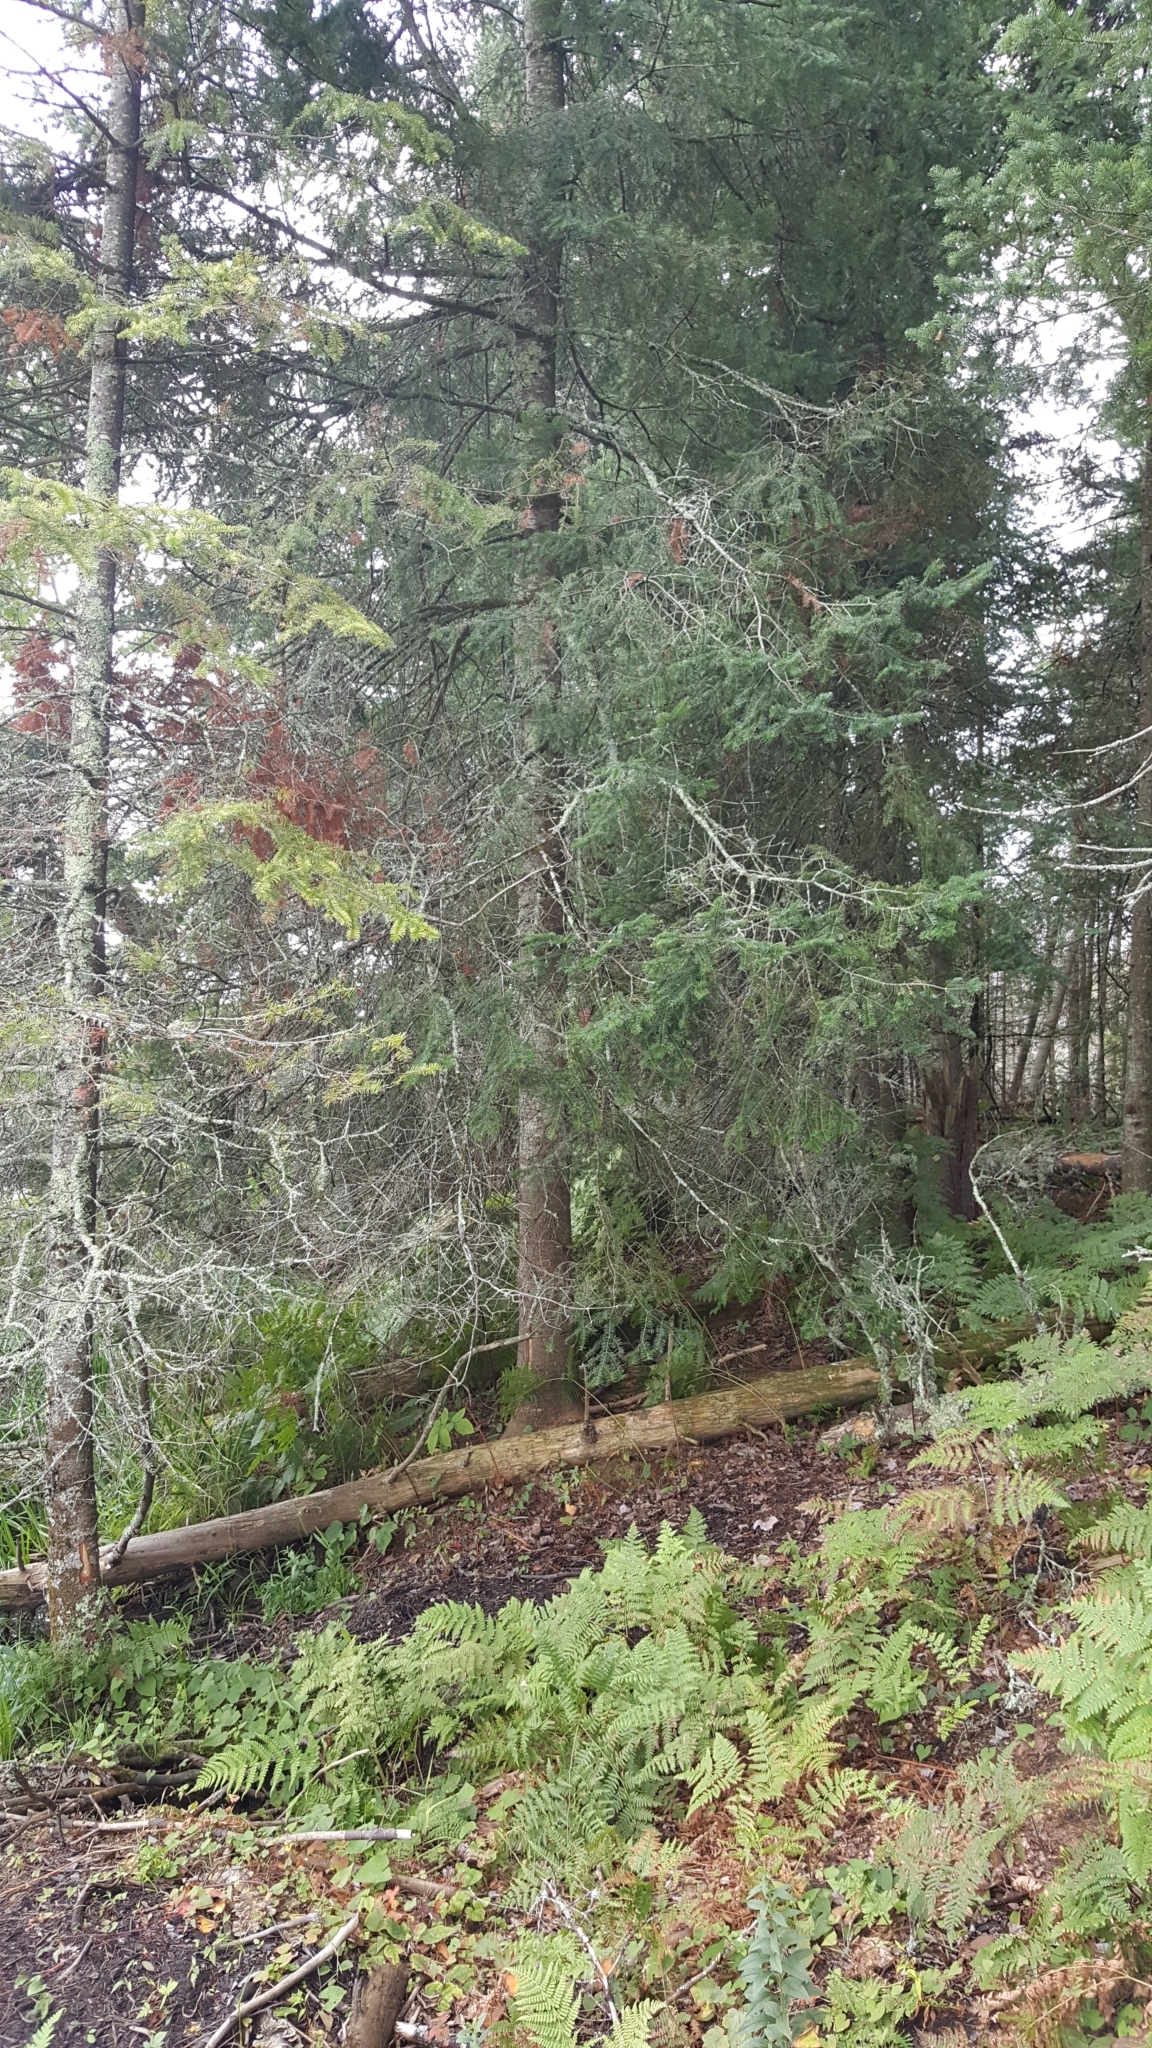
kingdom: Plantae
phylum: Tracheophyta
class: Pinopsida
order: Pinales
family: Pinaceae
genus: Abies
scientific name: Abies balsamea
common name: Balsam fir
